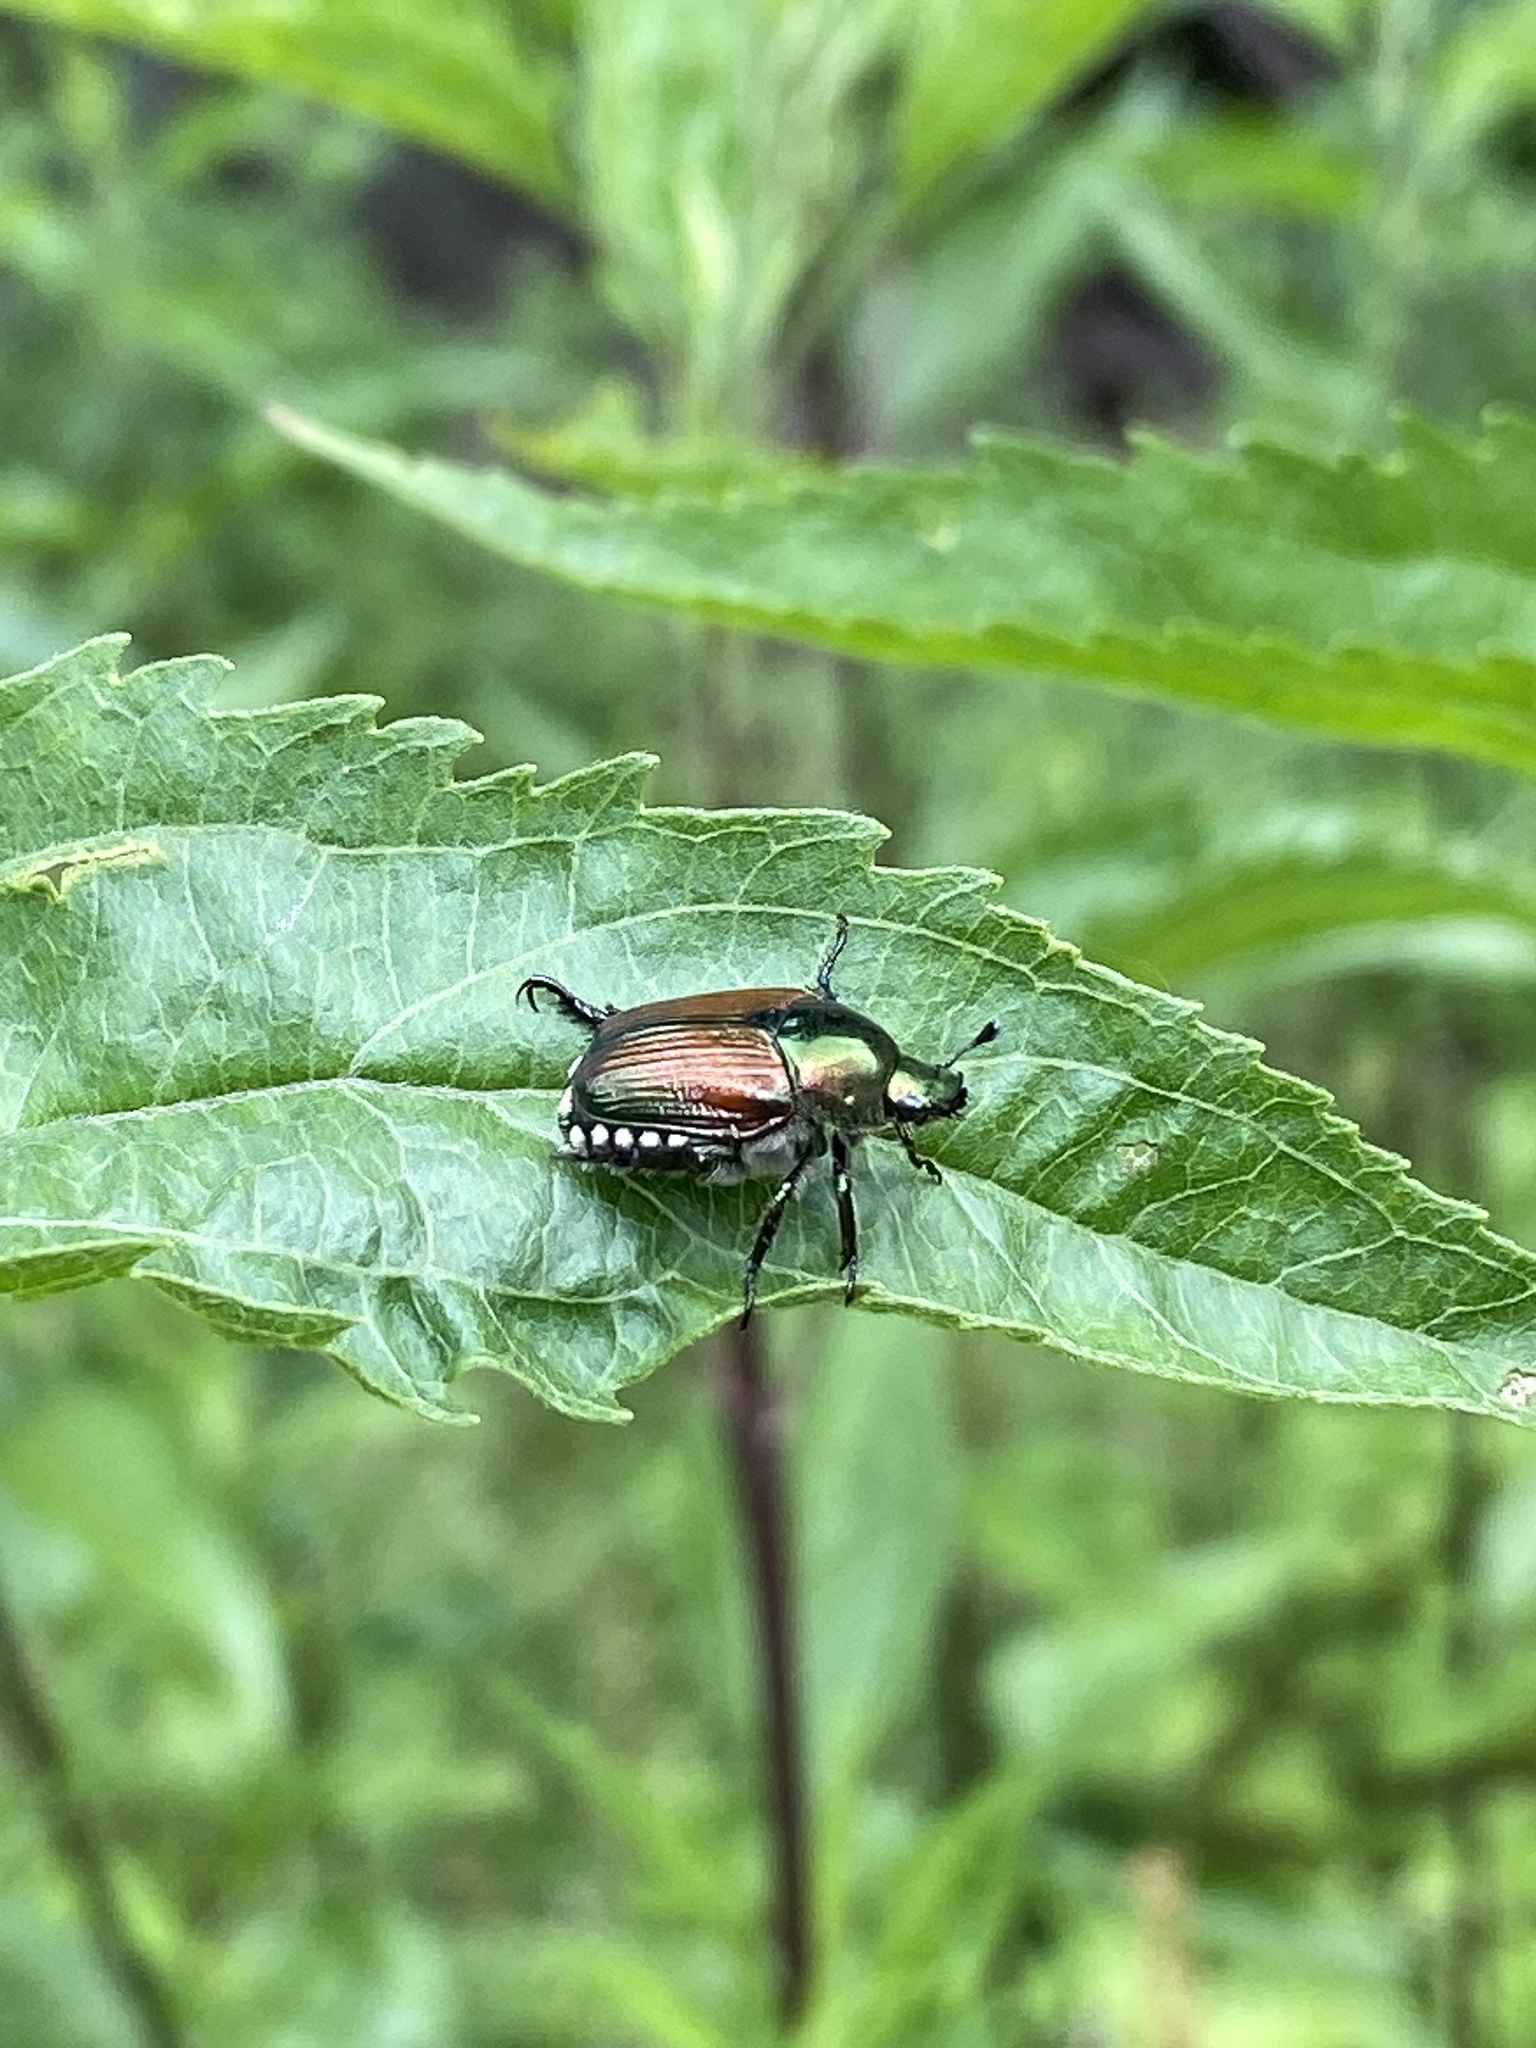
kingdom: Animalia
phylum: Arthropoda
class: Insecta
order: Coleoptera
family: Scarabaeidae
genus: Popillia
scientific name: Popillia japonica
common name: Japanese beetle
